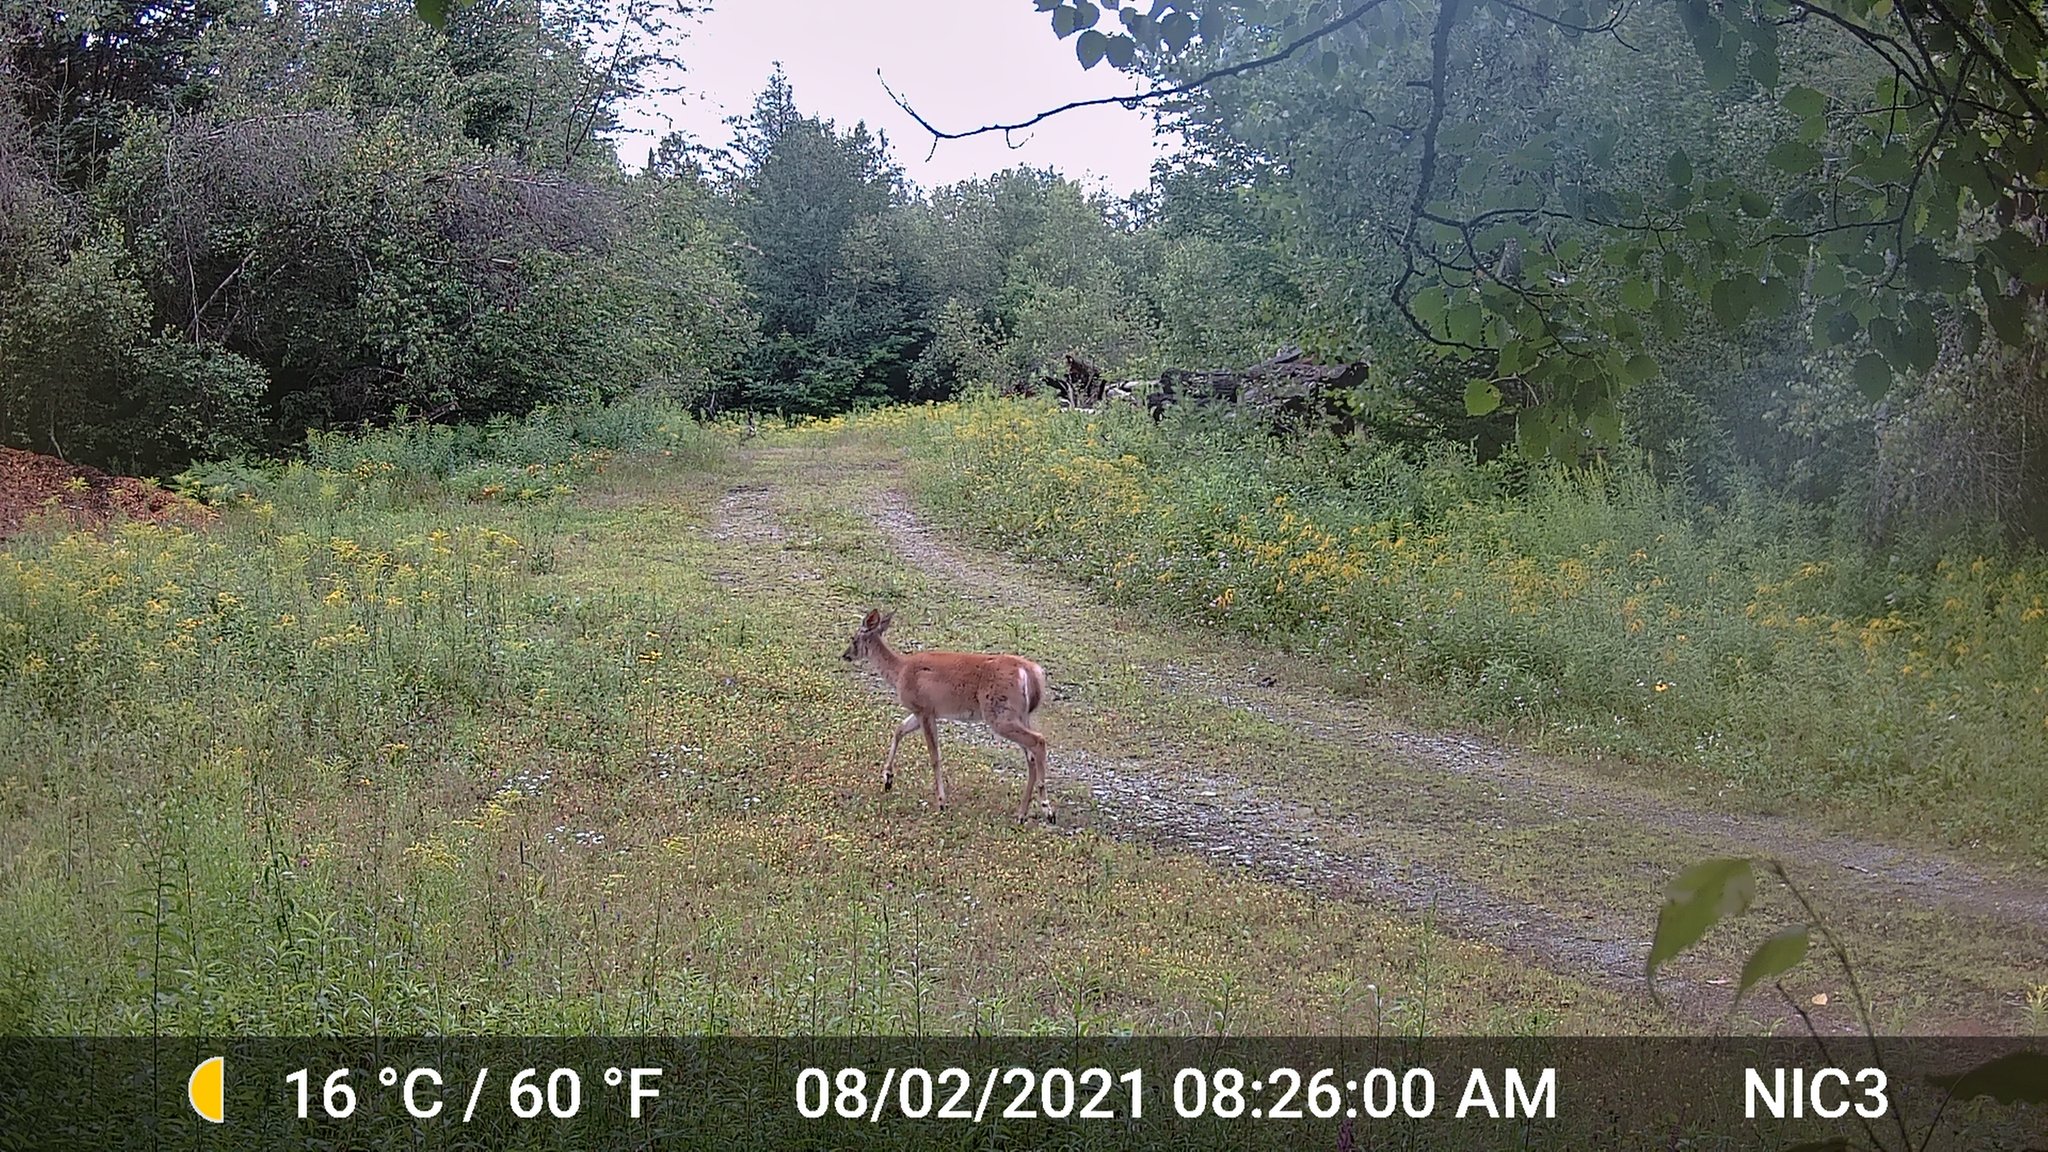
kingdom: Animalia
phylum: Chordata
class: Mammalia
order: Artiodactyla
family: Cervidae
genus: Odocoileus
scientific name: Odocoileus virginianus
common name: White-tailed deer
